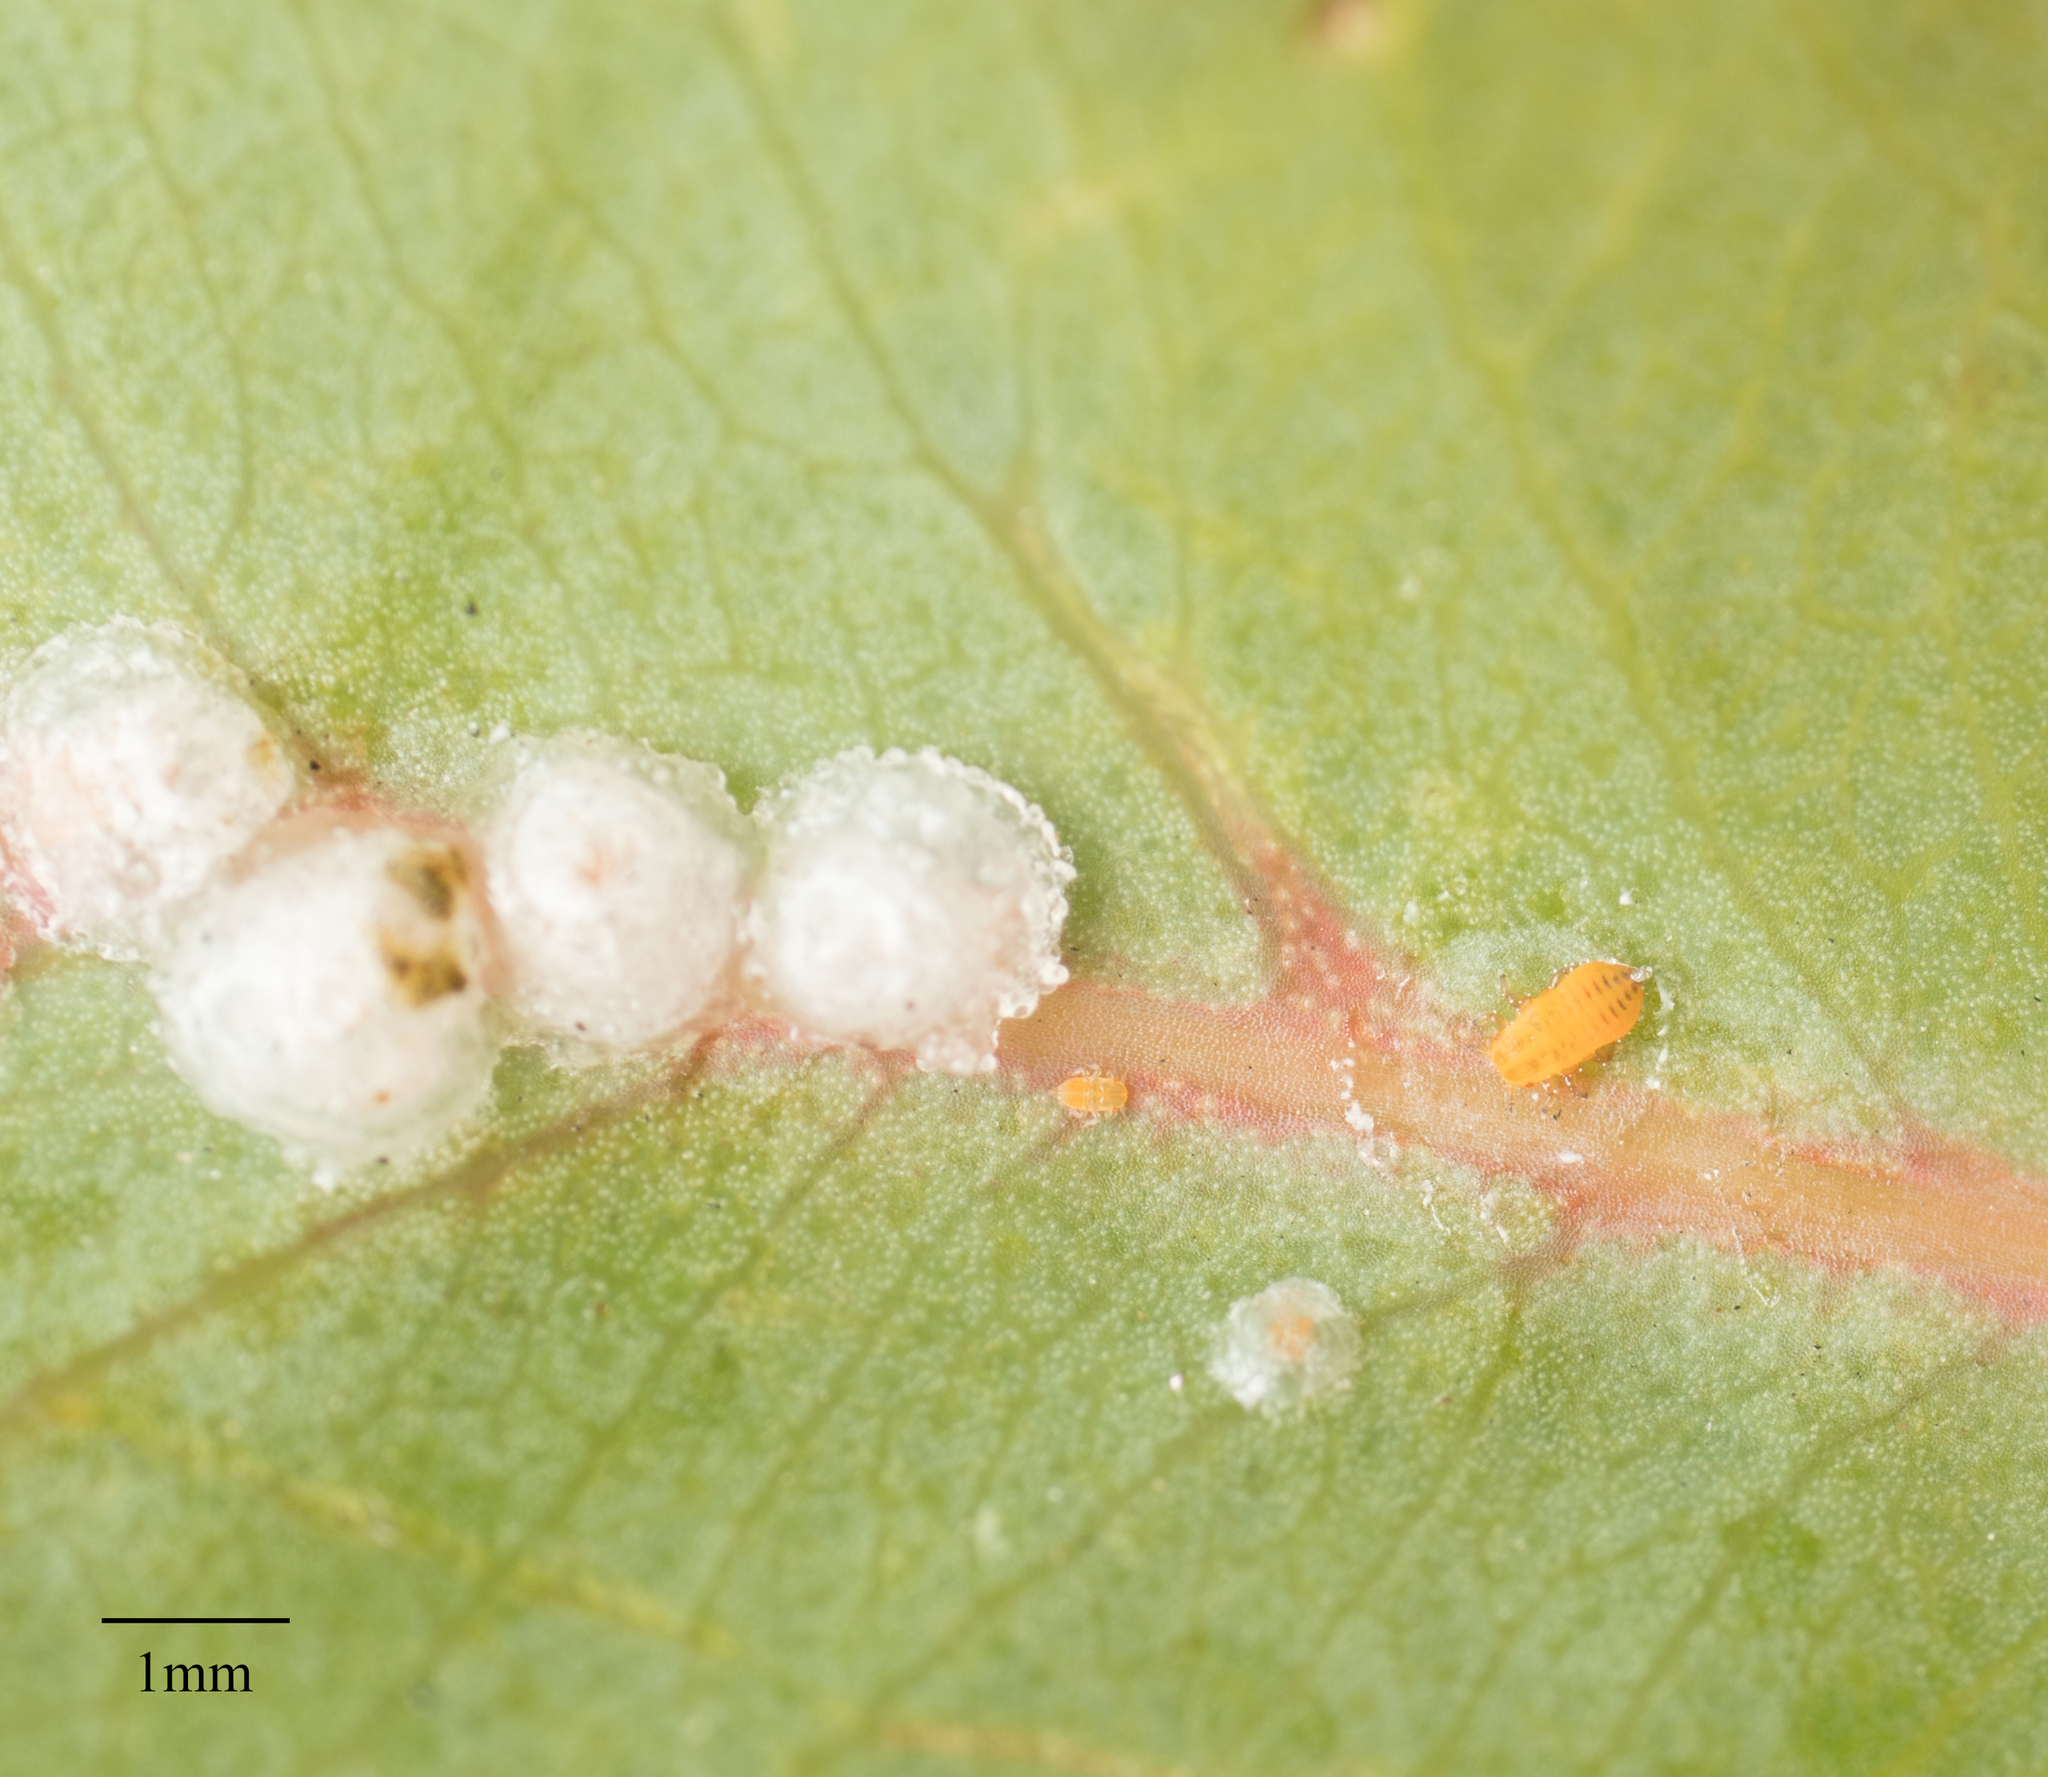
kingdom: Animalia
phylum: Arthropoda
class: Insecta
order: Hemiptera
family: Aphalaridae
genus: Glycaspis
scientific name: Glycaspis brimblecombei
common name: Red gum lerp psyllid
